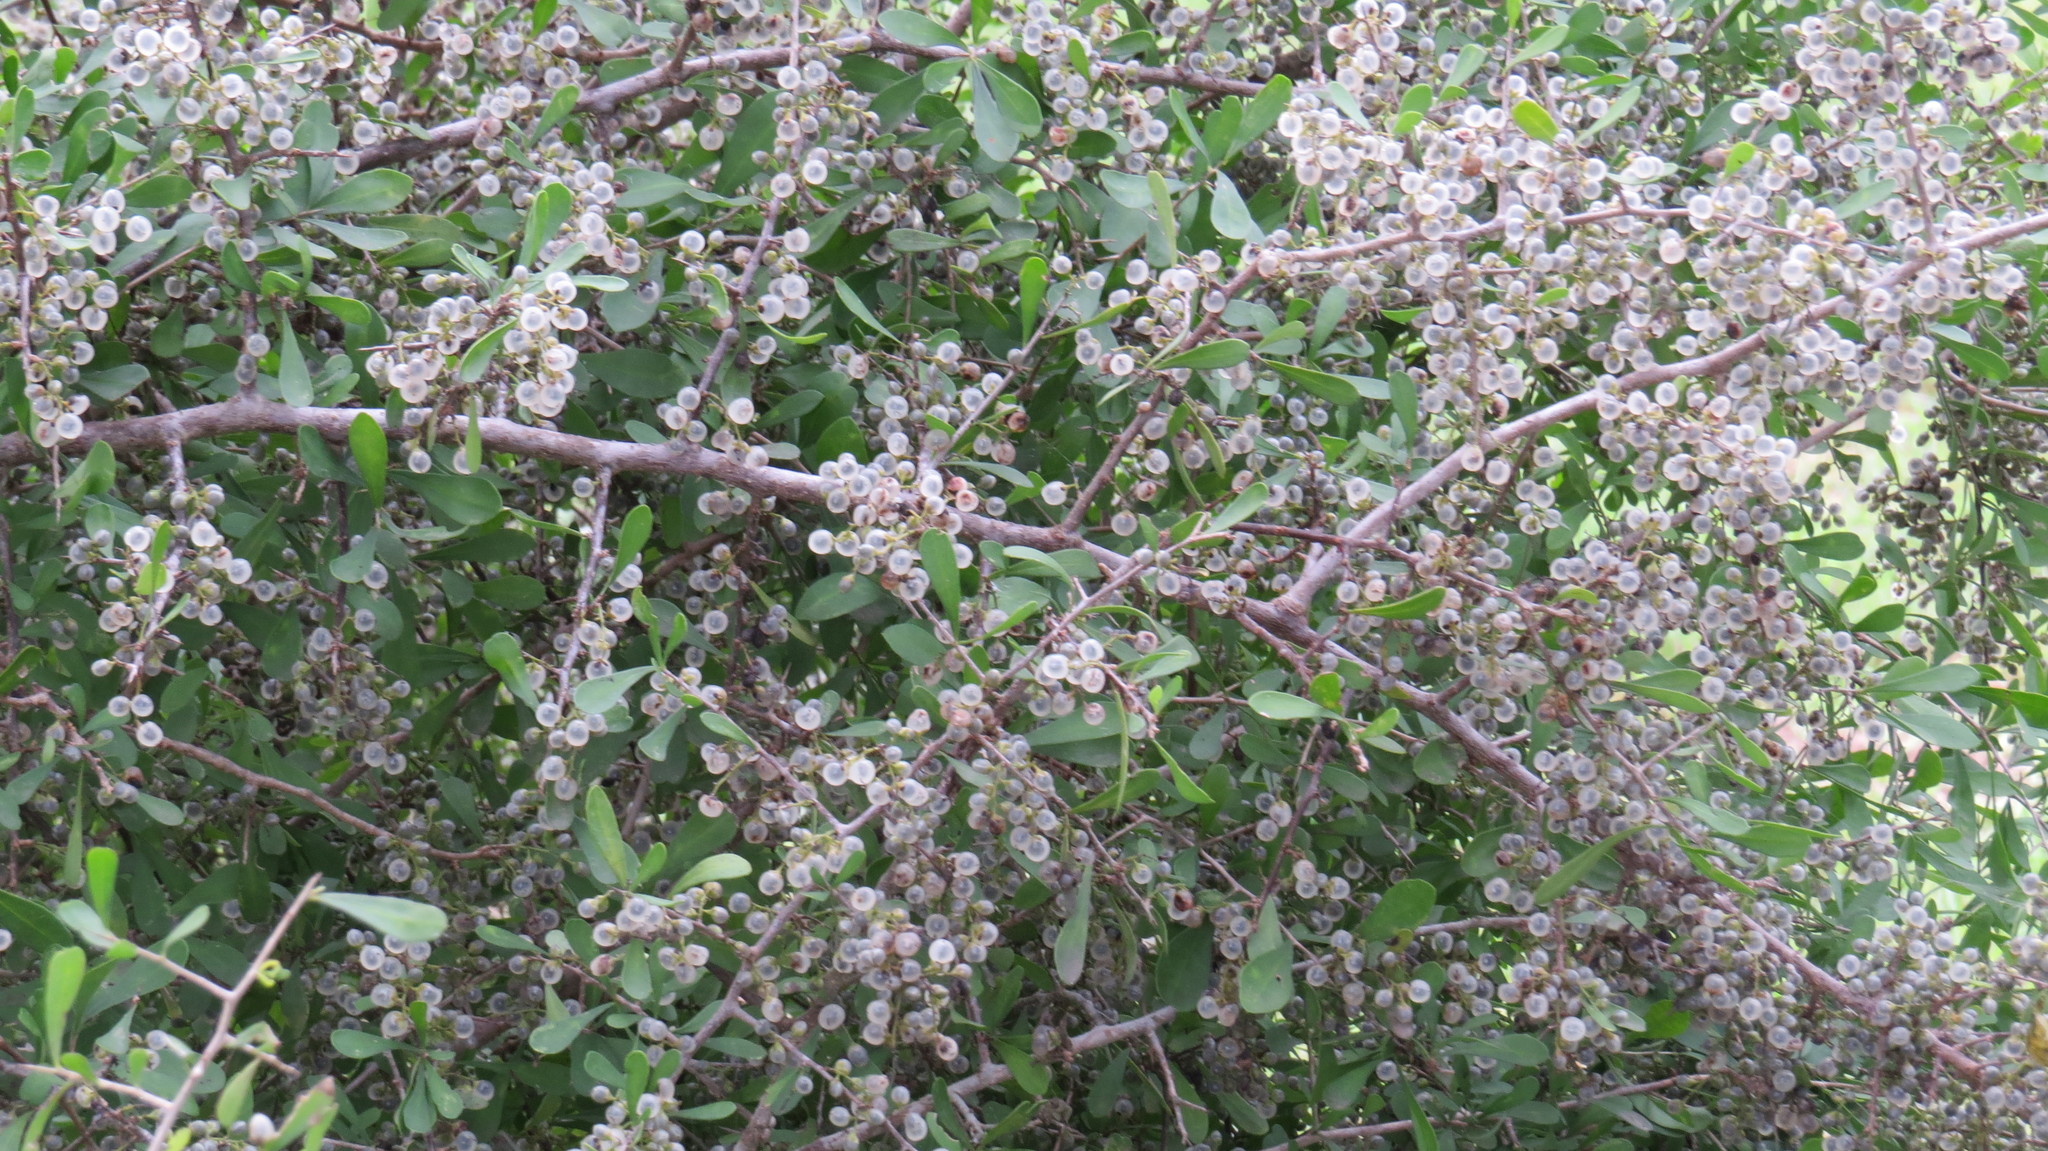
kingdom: Plantae
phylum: Tracheophyta
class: Magnoliopsida
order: Caryophyllales
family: Achatocarpaceae
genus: Phaulothamnus
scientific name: Phaulothamnus spinescens
